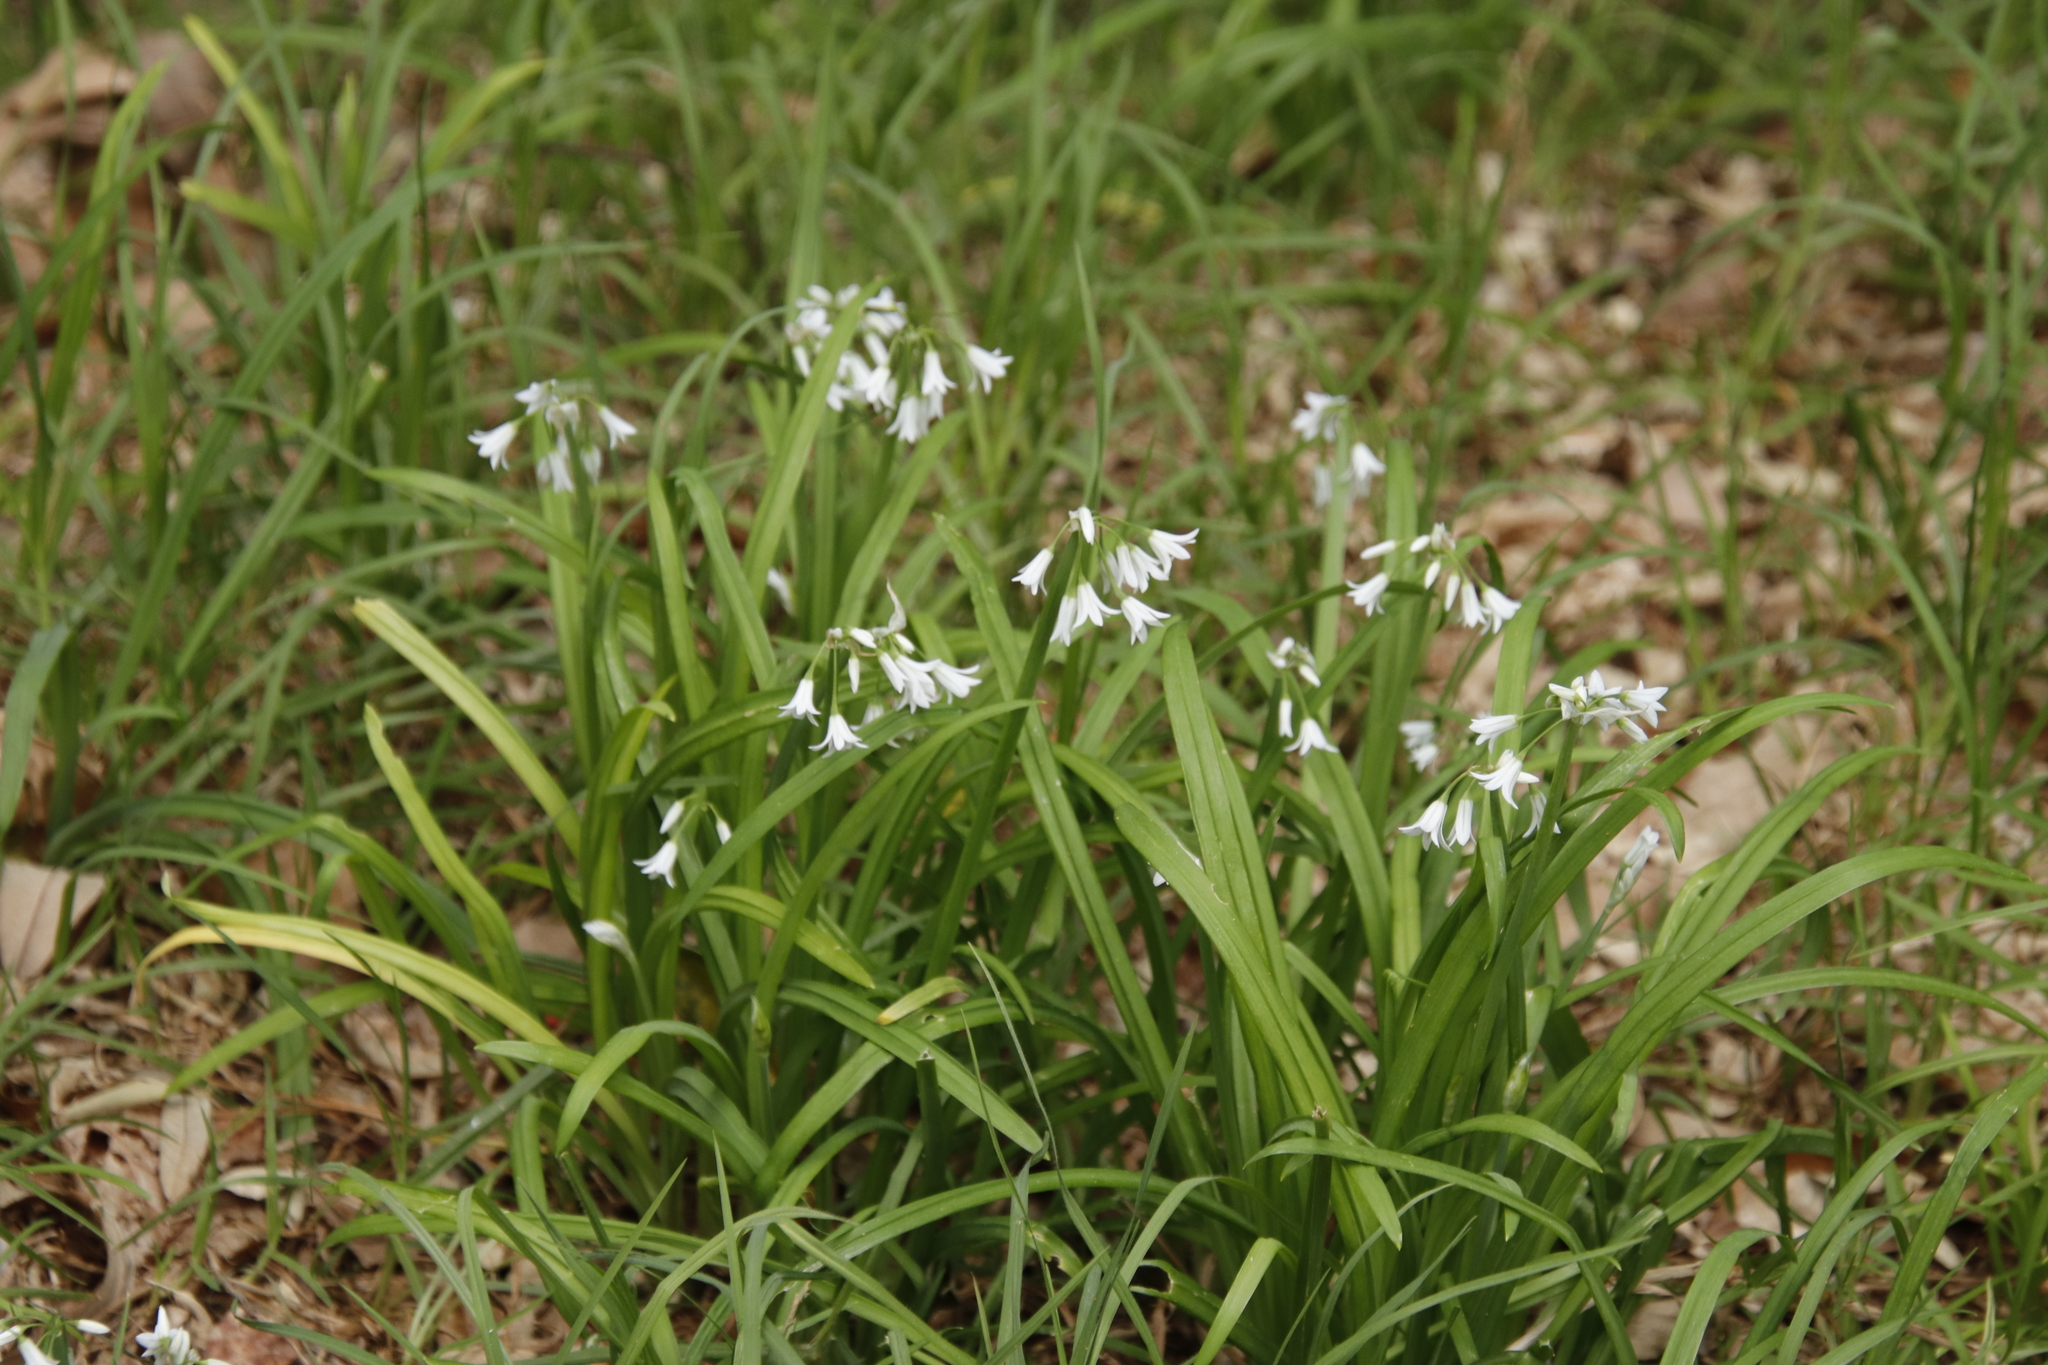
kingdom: Plantae
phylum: Tracheophyta
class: Liliopsida
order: Asparagales
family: Amaryllidaceae
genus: Allium
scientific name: Allium triquetrum
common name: Three-cornered garlic
